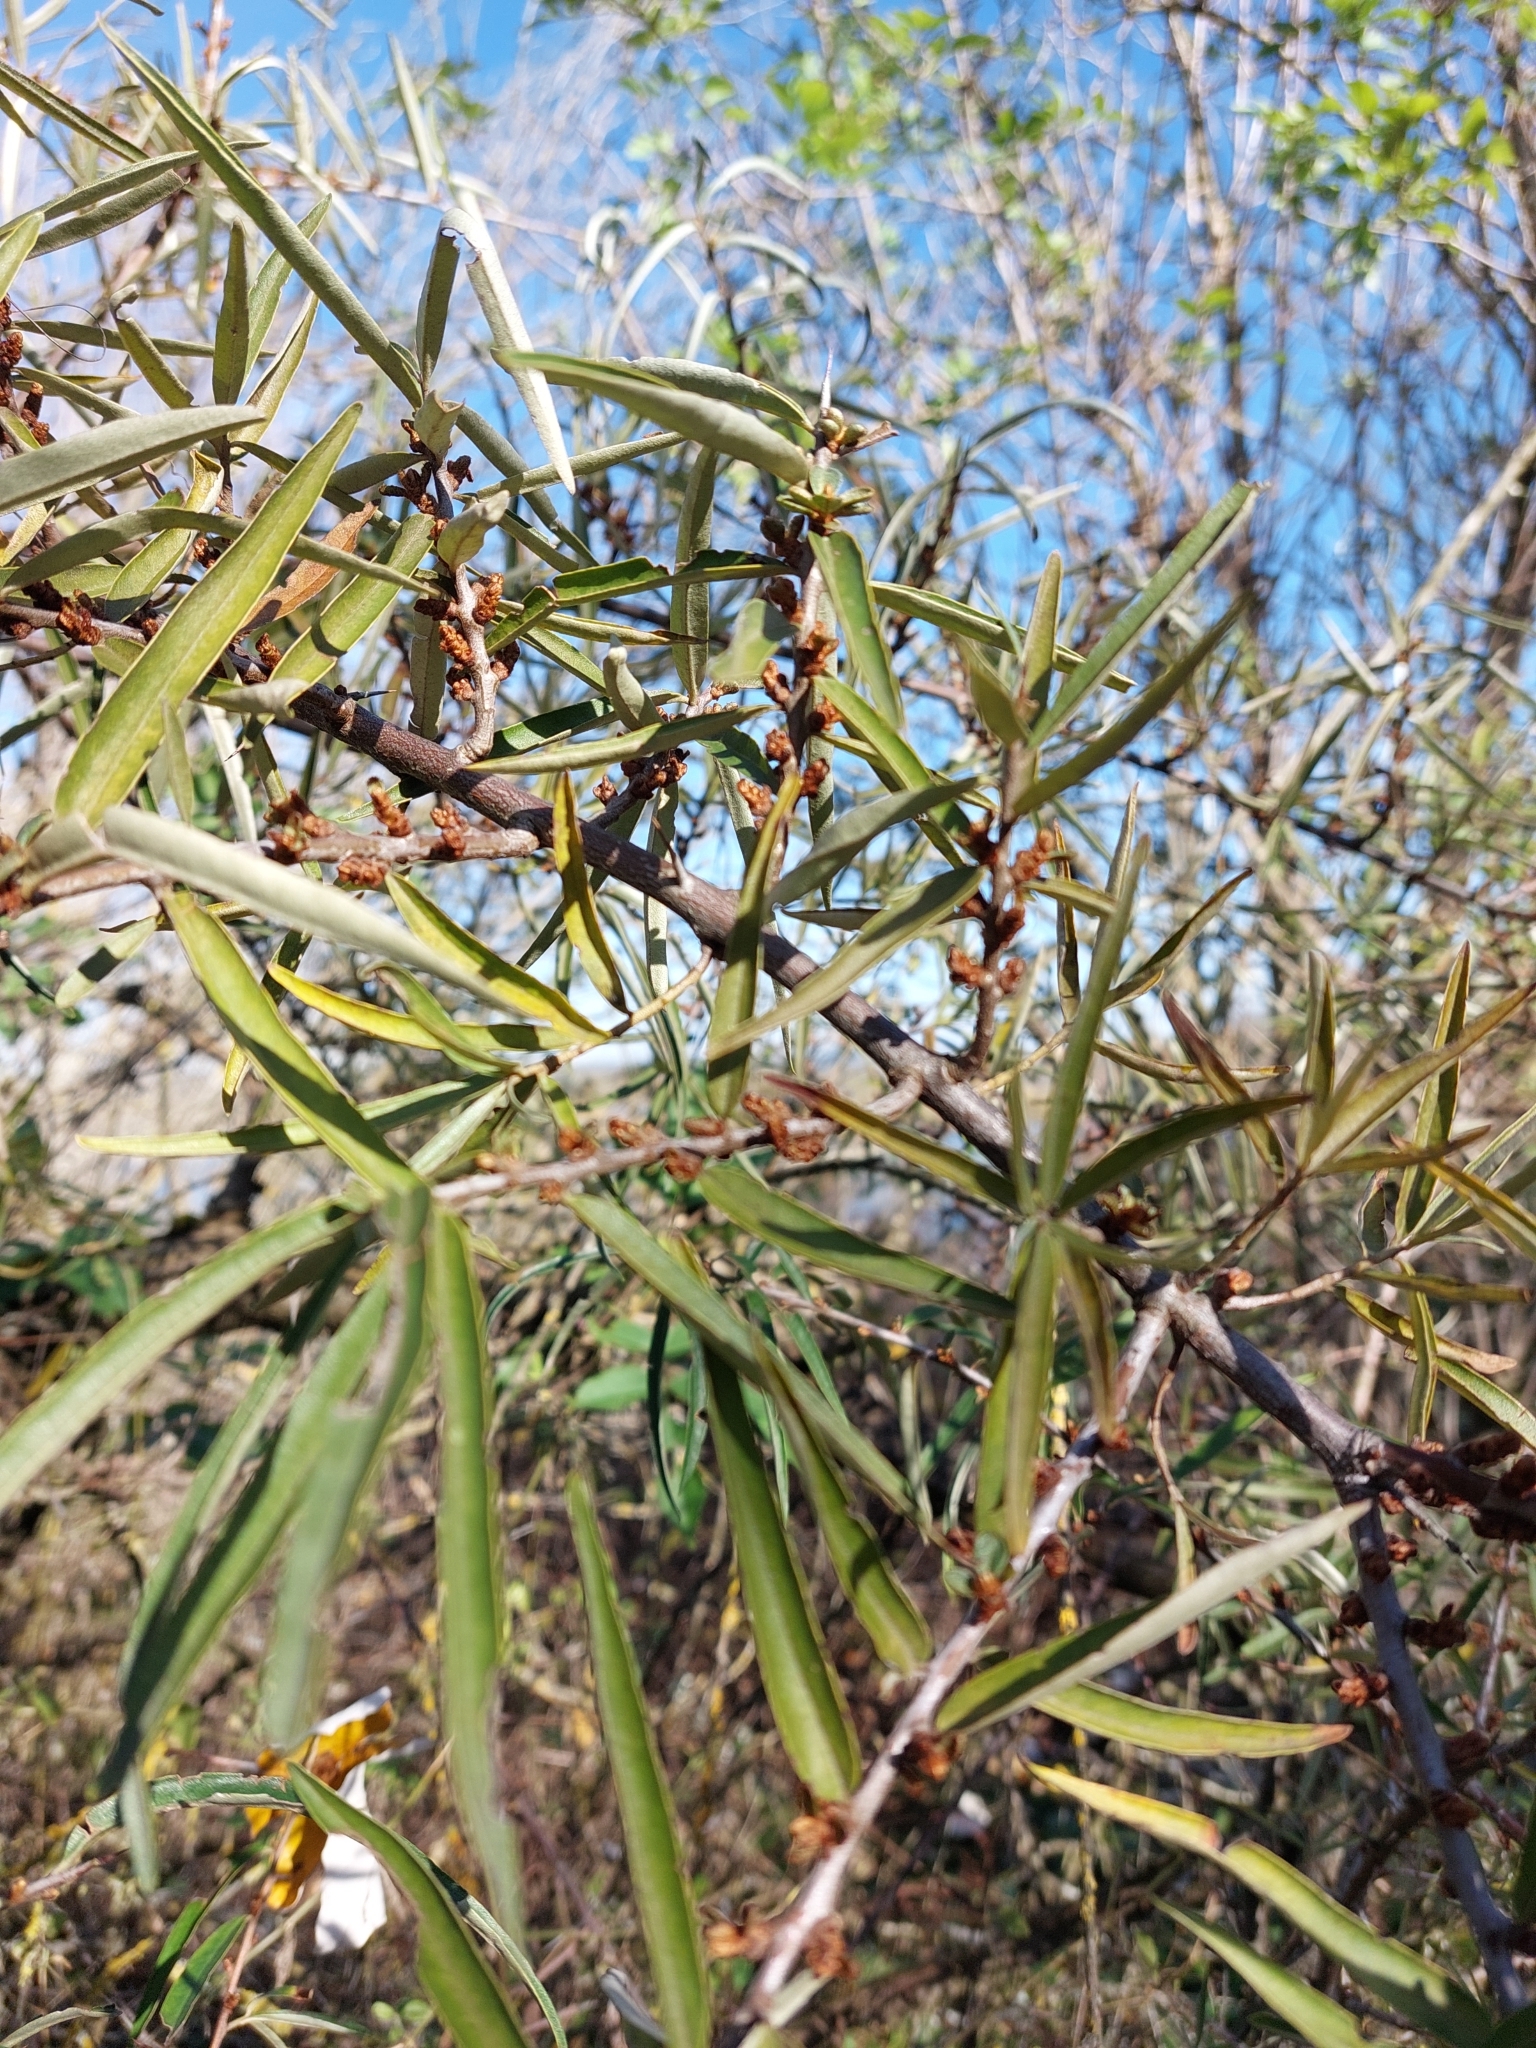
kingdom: Plantae
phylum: Tracheophyta
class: Magnoliopsida
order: Rosales
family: Elaeagnaceae
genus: Hippophae
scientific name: Hippophae rhamnoides
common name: Sea-buckthorn
